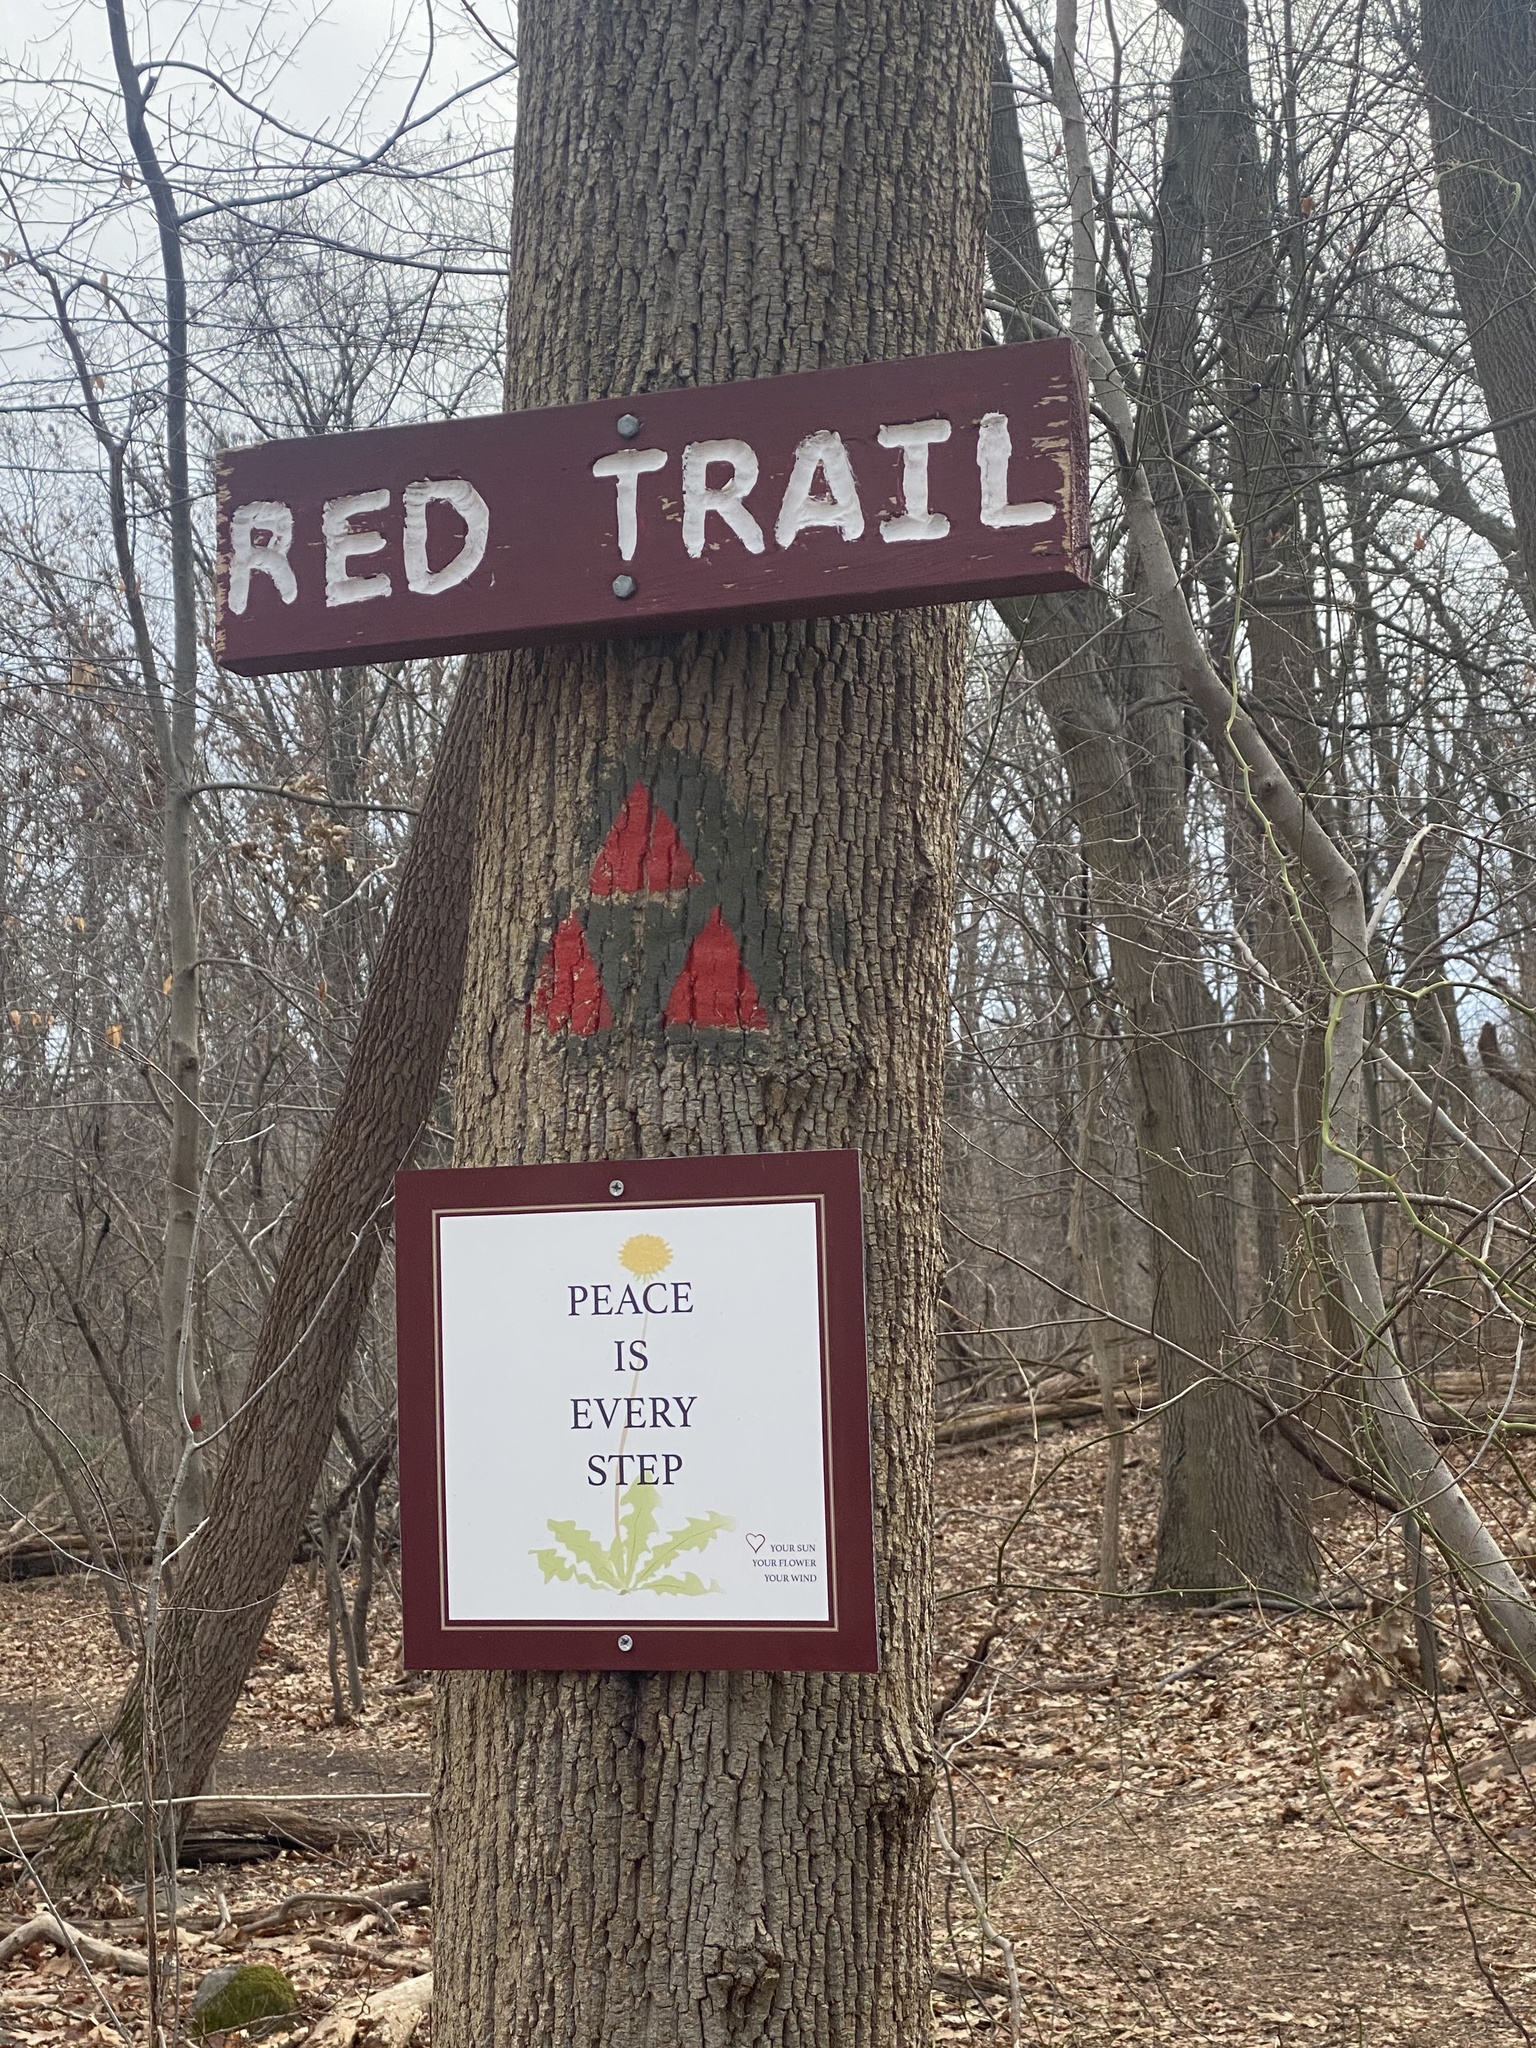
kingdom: Plantae
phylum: Tracheophyta
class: Magnoliopsida
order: Geraniales
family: Geraniaceae
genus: Geranium
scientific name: Geranium robertianum
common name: Herb-robert
